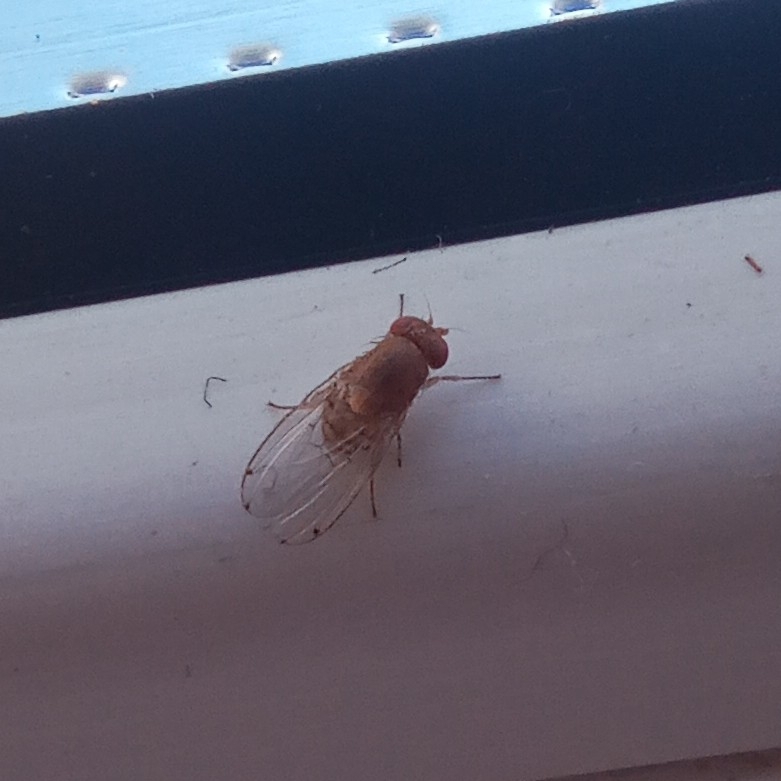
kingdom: Animalia
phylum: Arthropoda
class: Insecta
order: Diptera
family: Drosophilidae
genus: Gitona
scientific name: Gitona distigma
